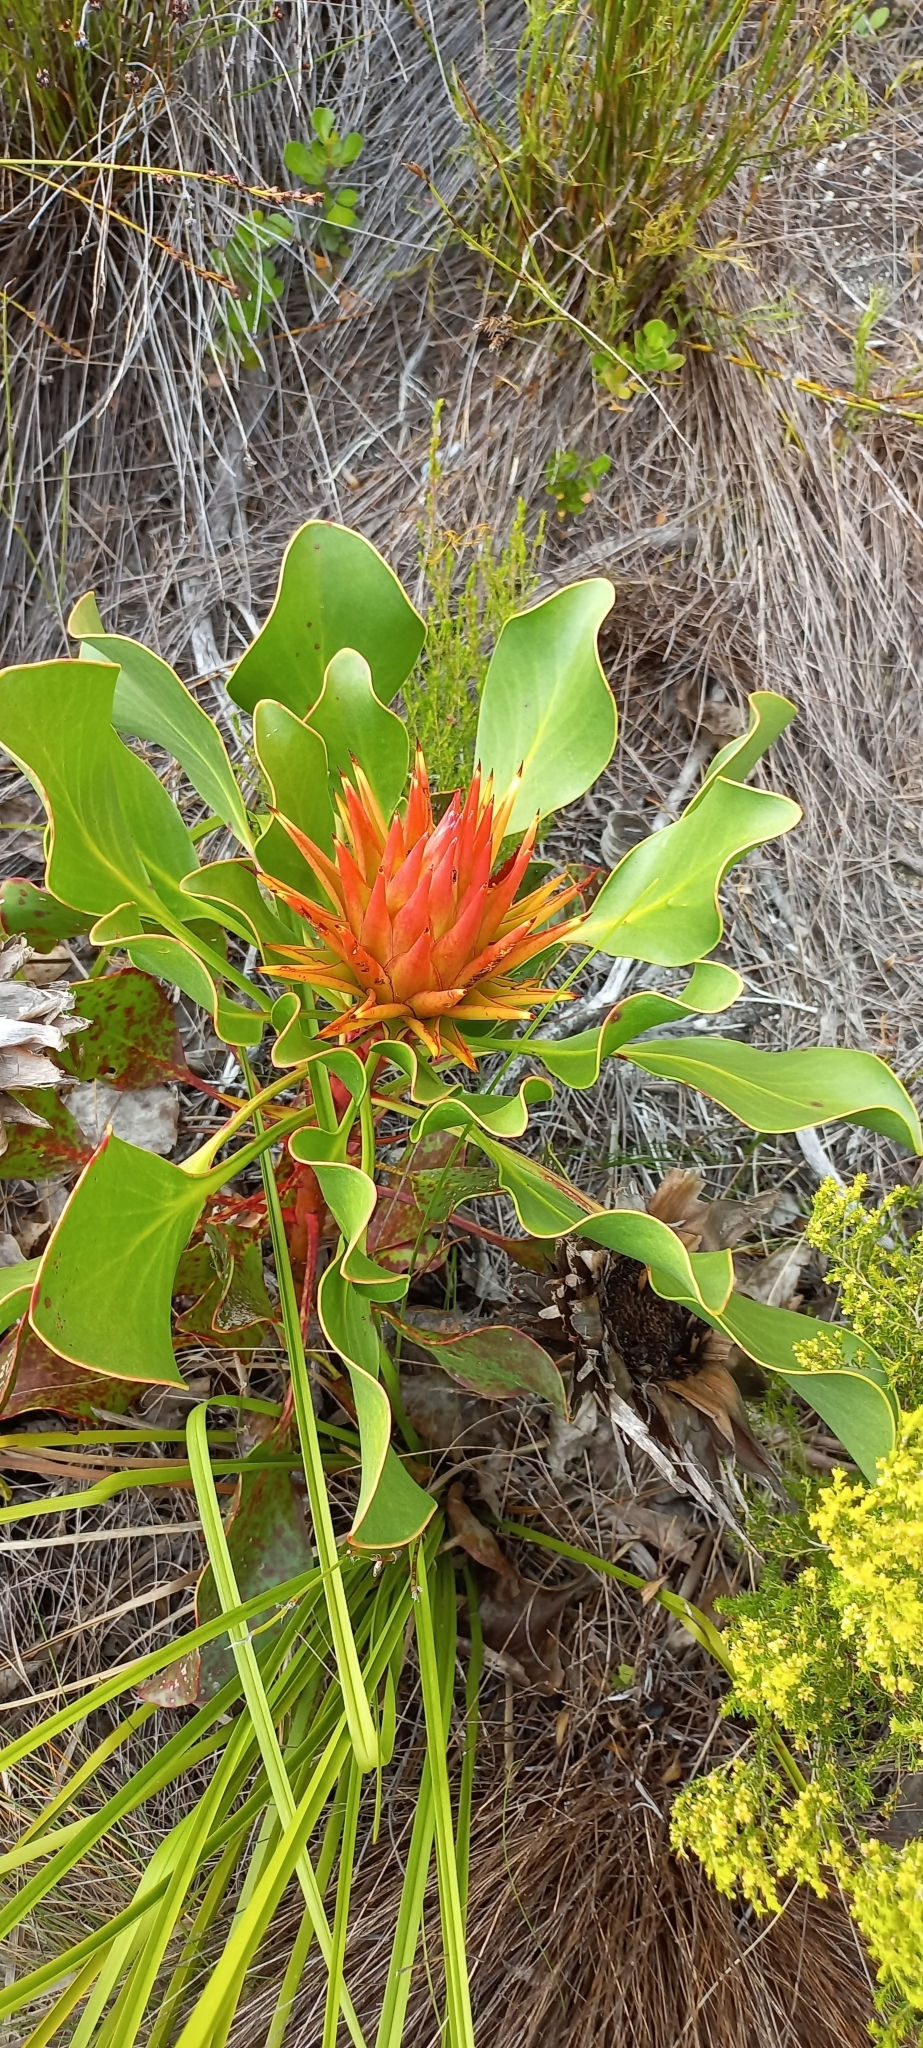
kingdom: Plantae
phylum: Tracheophyta
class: Magnoliopsida
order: Proteales
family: Proteaceae
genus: Protea
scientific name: Protea cynaroides
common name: King protea
